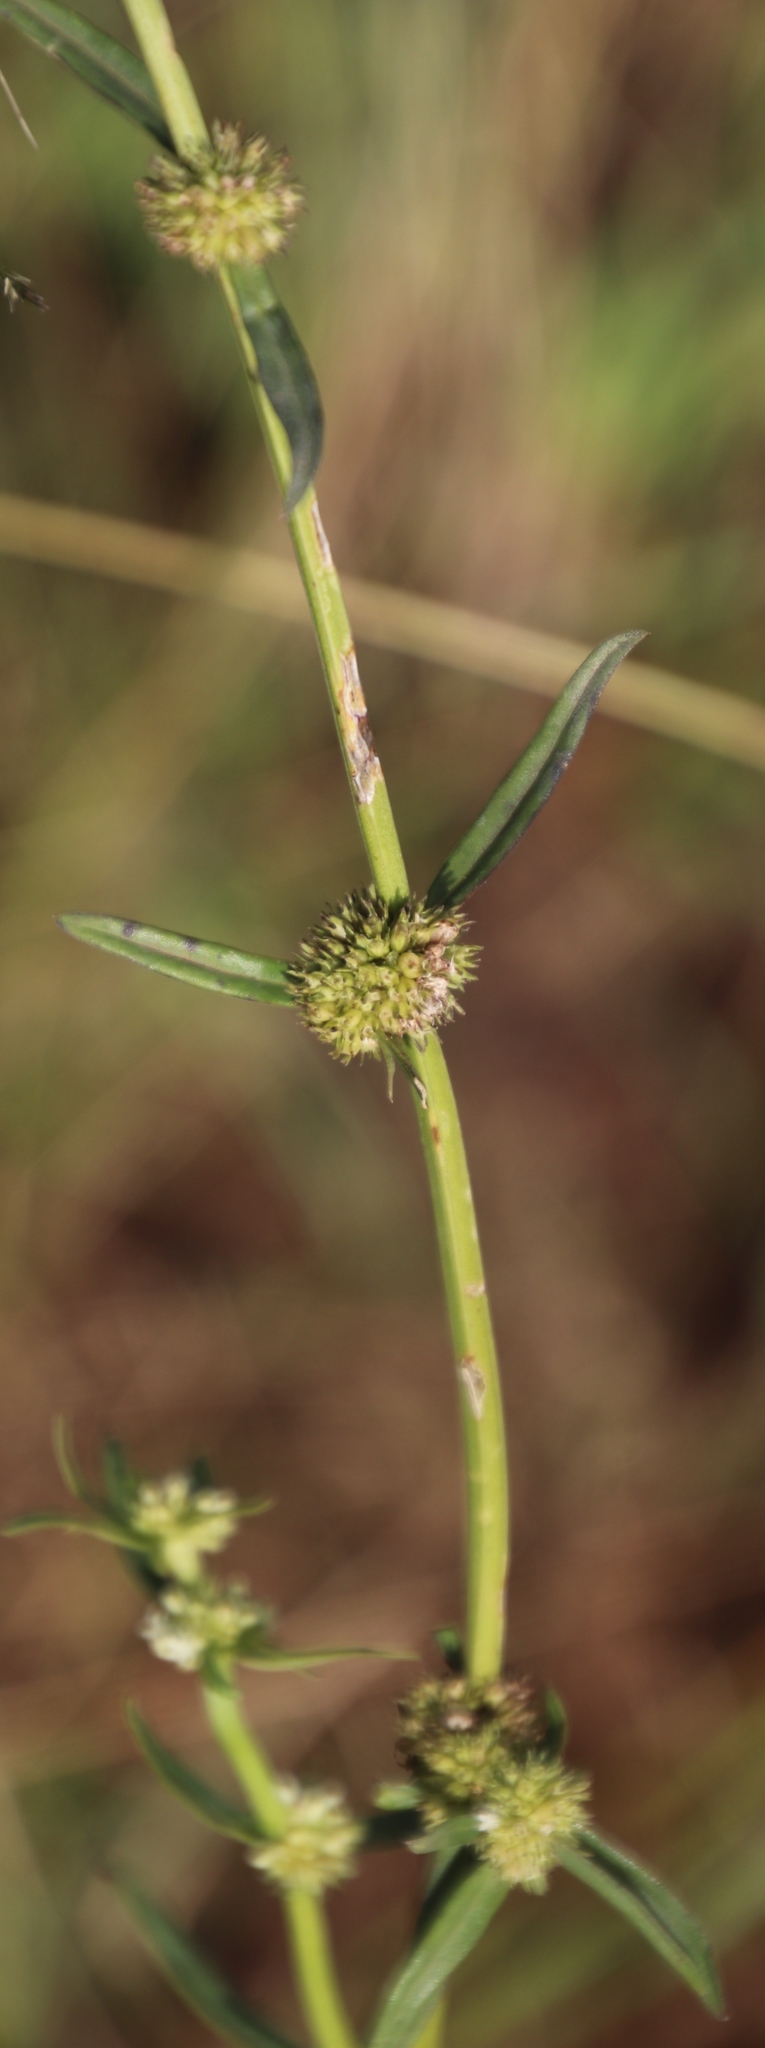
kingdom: Plantae
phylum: Tracheophyta
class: Magnoliopsida
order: Gentianales
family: Rubiaceae
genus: Spermacoce
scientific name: Spermacoce natalensis
